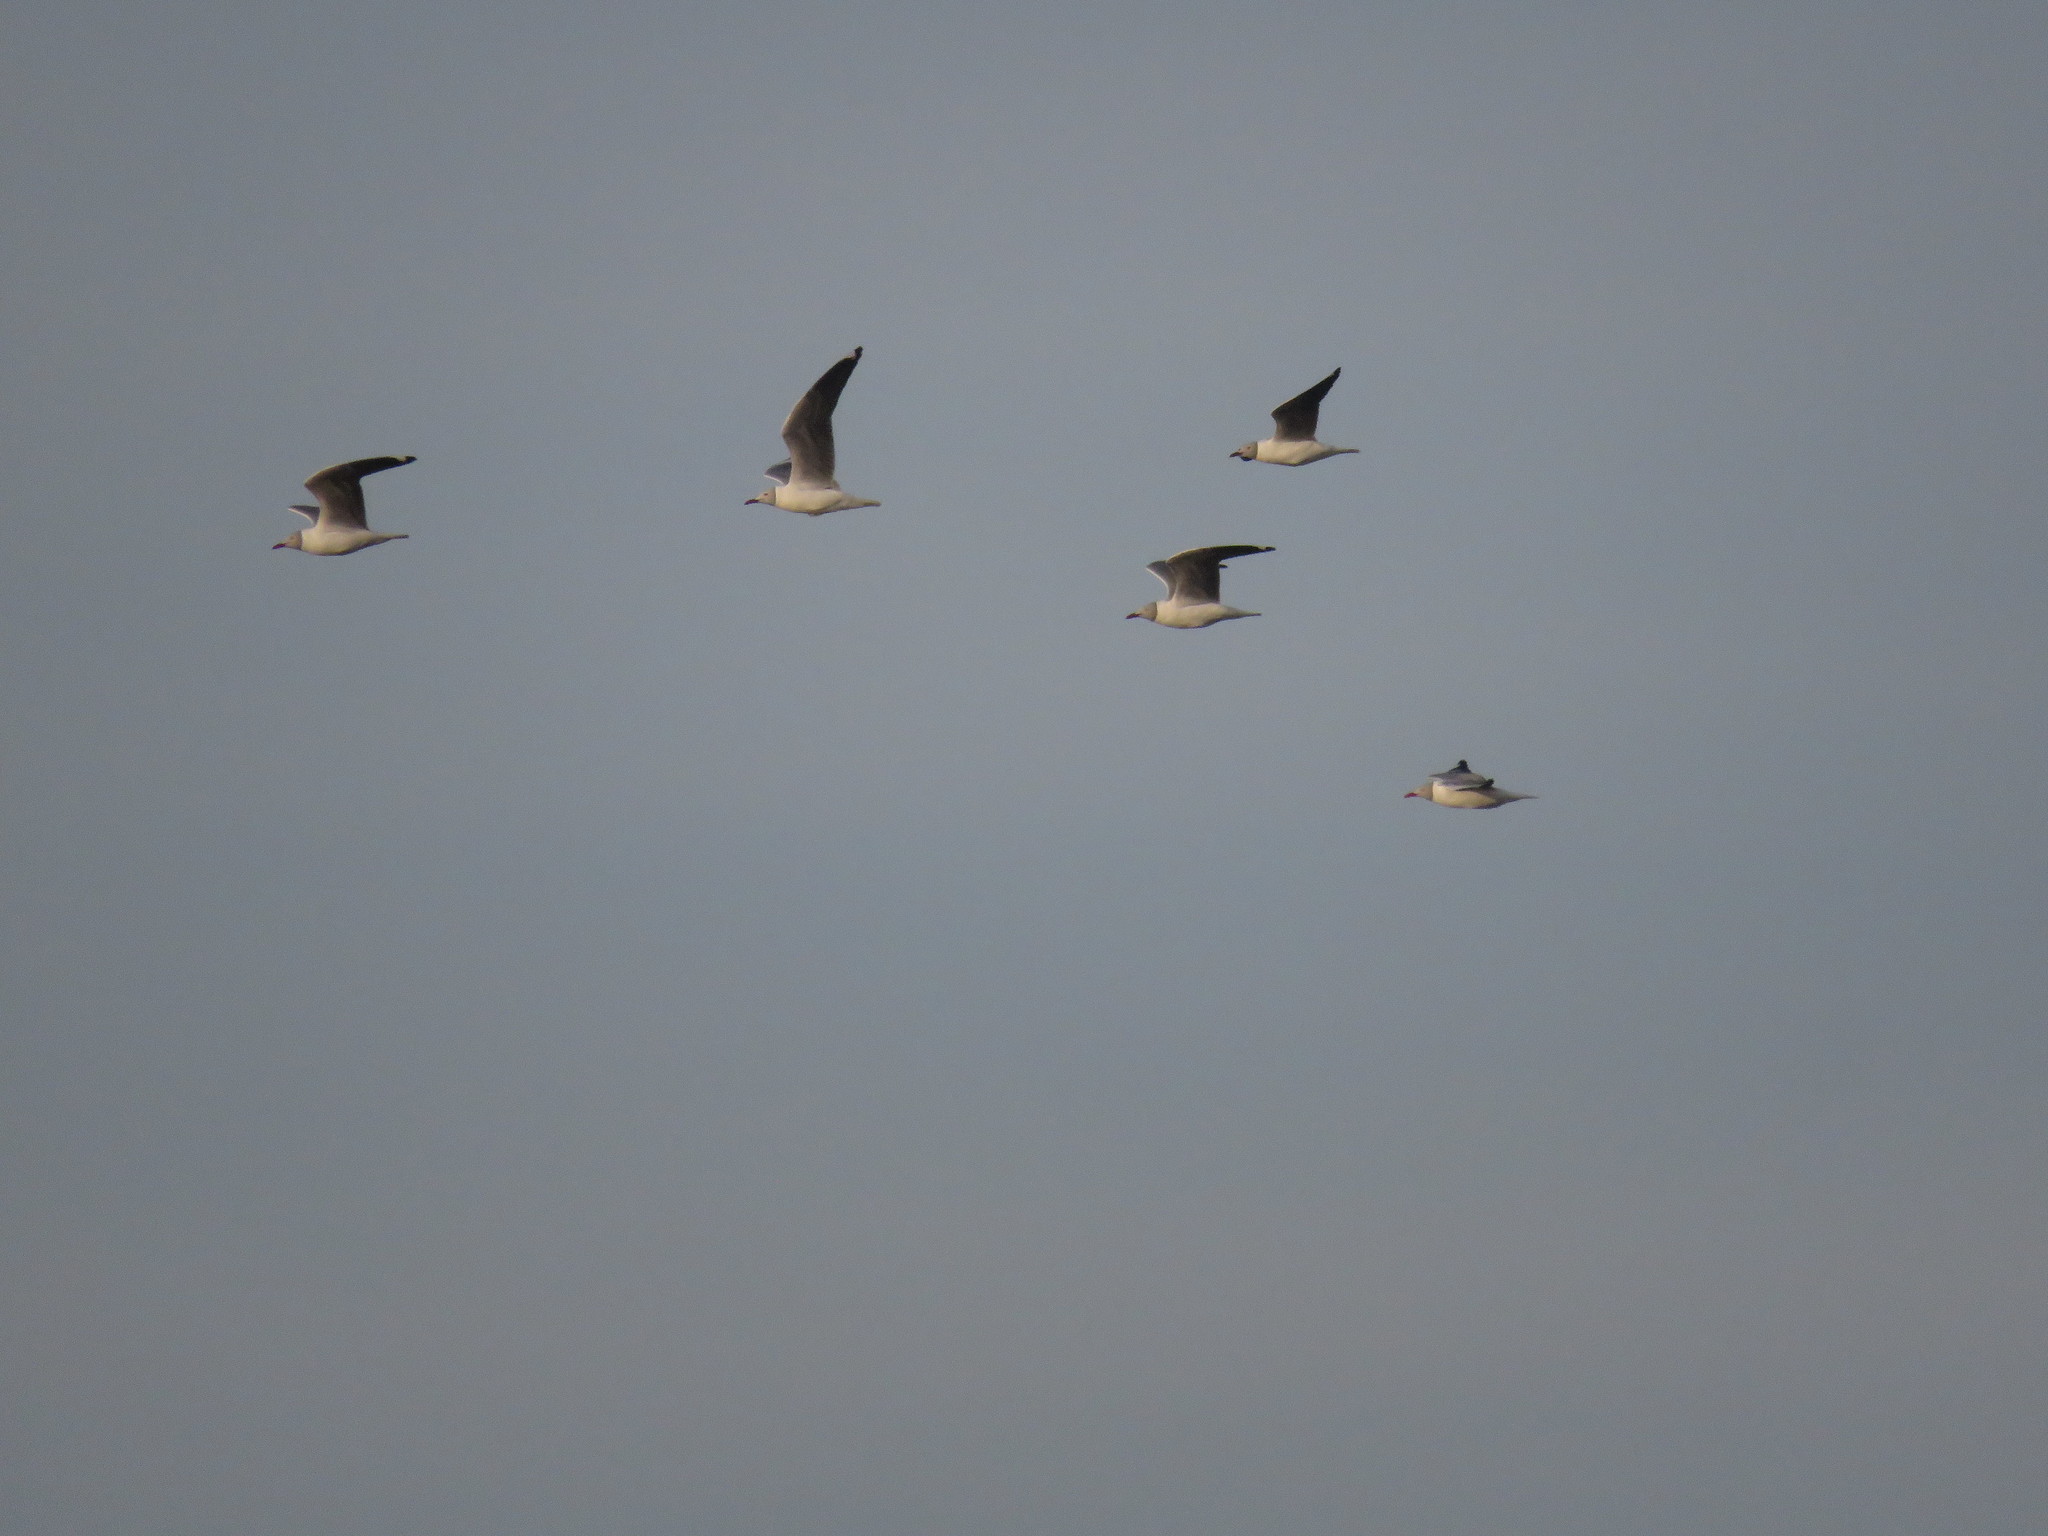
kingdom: Animalia
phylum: Chordata
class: Aves
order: Charadriiformes
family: Laridae
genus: Chroicocephalus
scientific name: Chroicocephalus cirrocephalus
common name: Grey-headed gull
